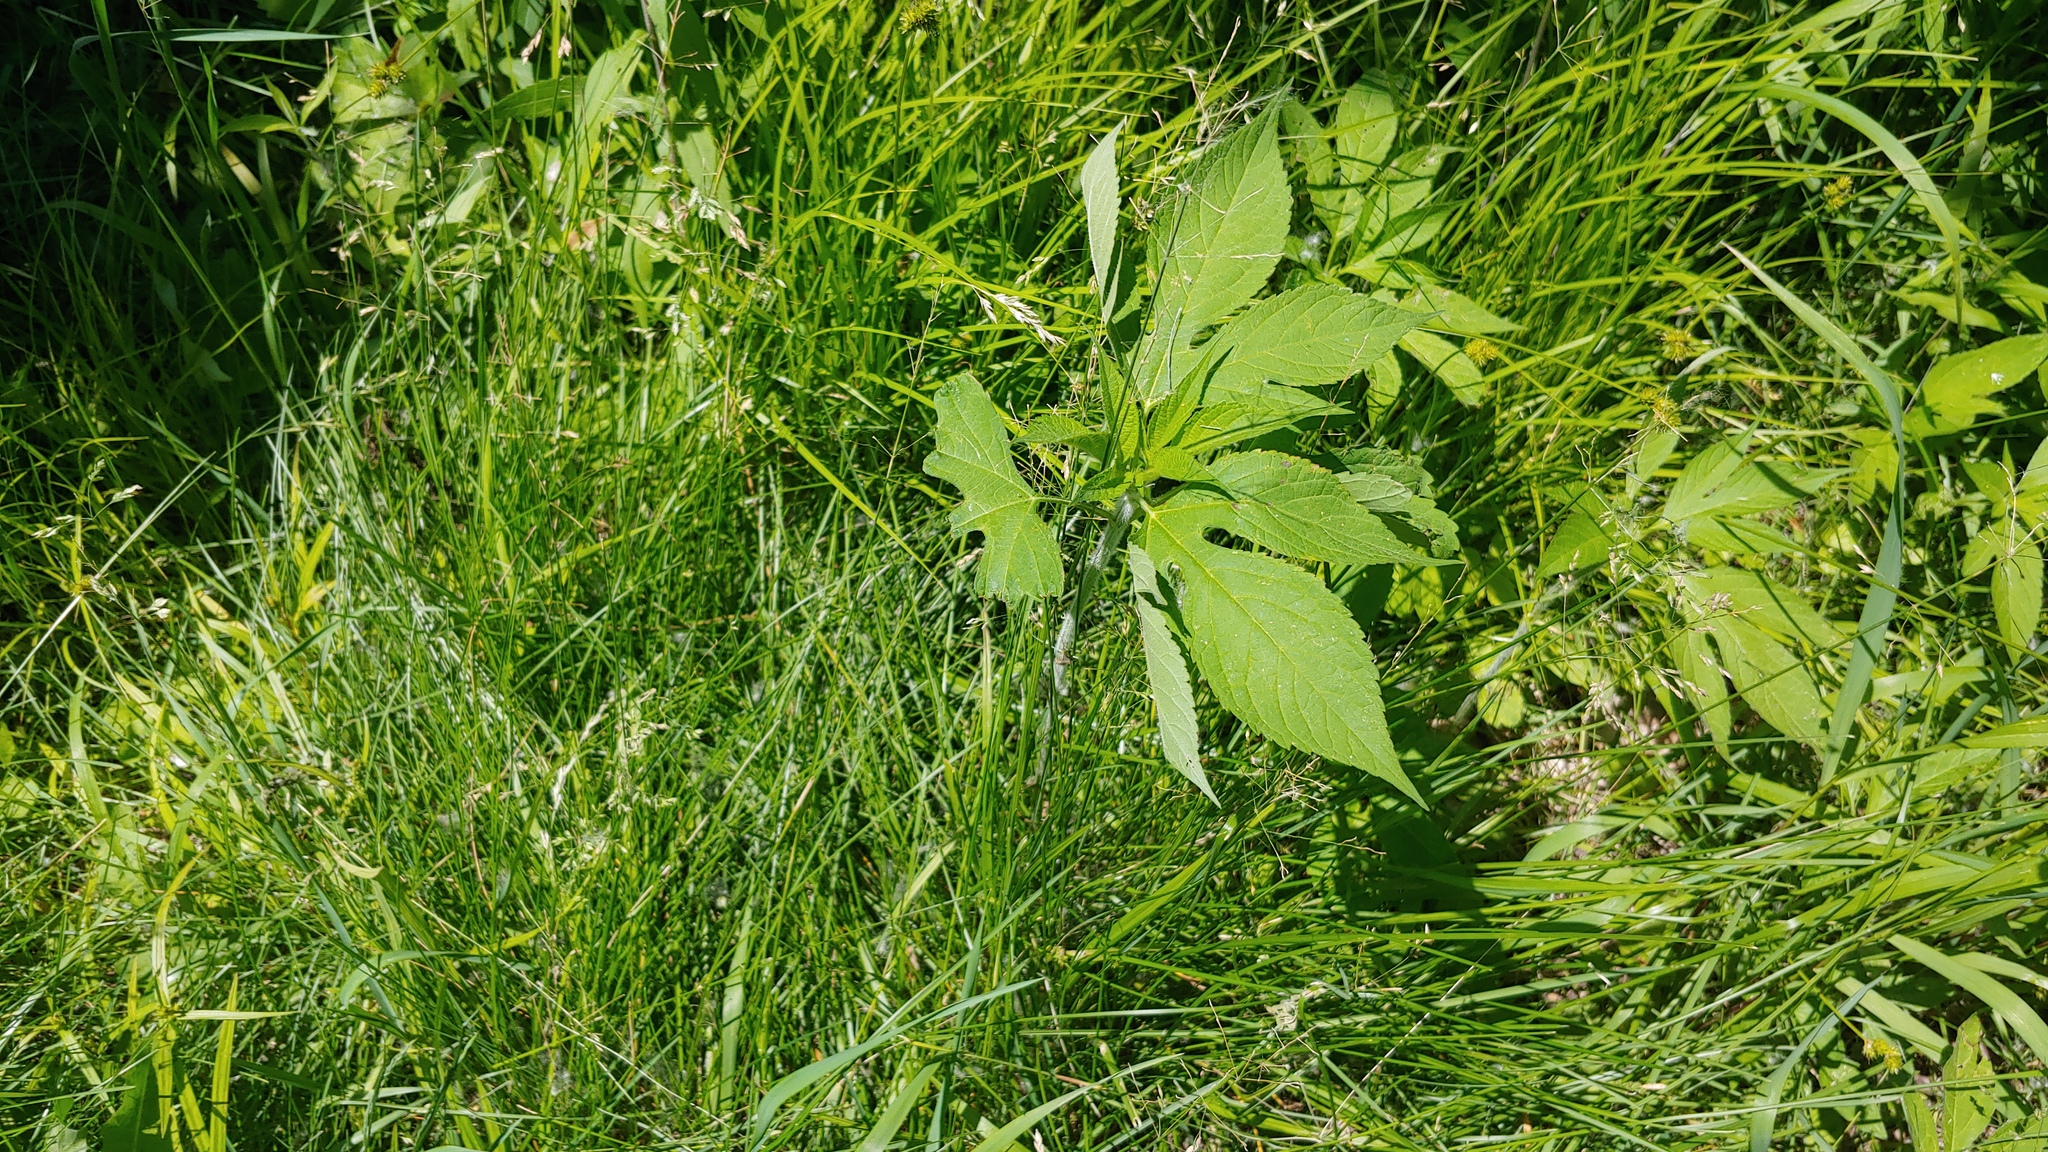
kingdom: Plantae
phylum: Tracheophyta
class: Magnoliopsida
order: Asterales
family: Asteraceae
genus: Ambrosia
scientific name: Ambrosia trifida
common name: Giant ragweed
